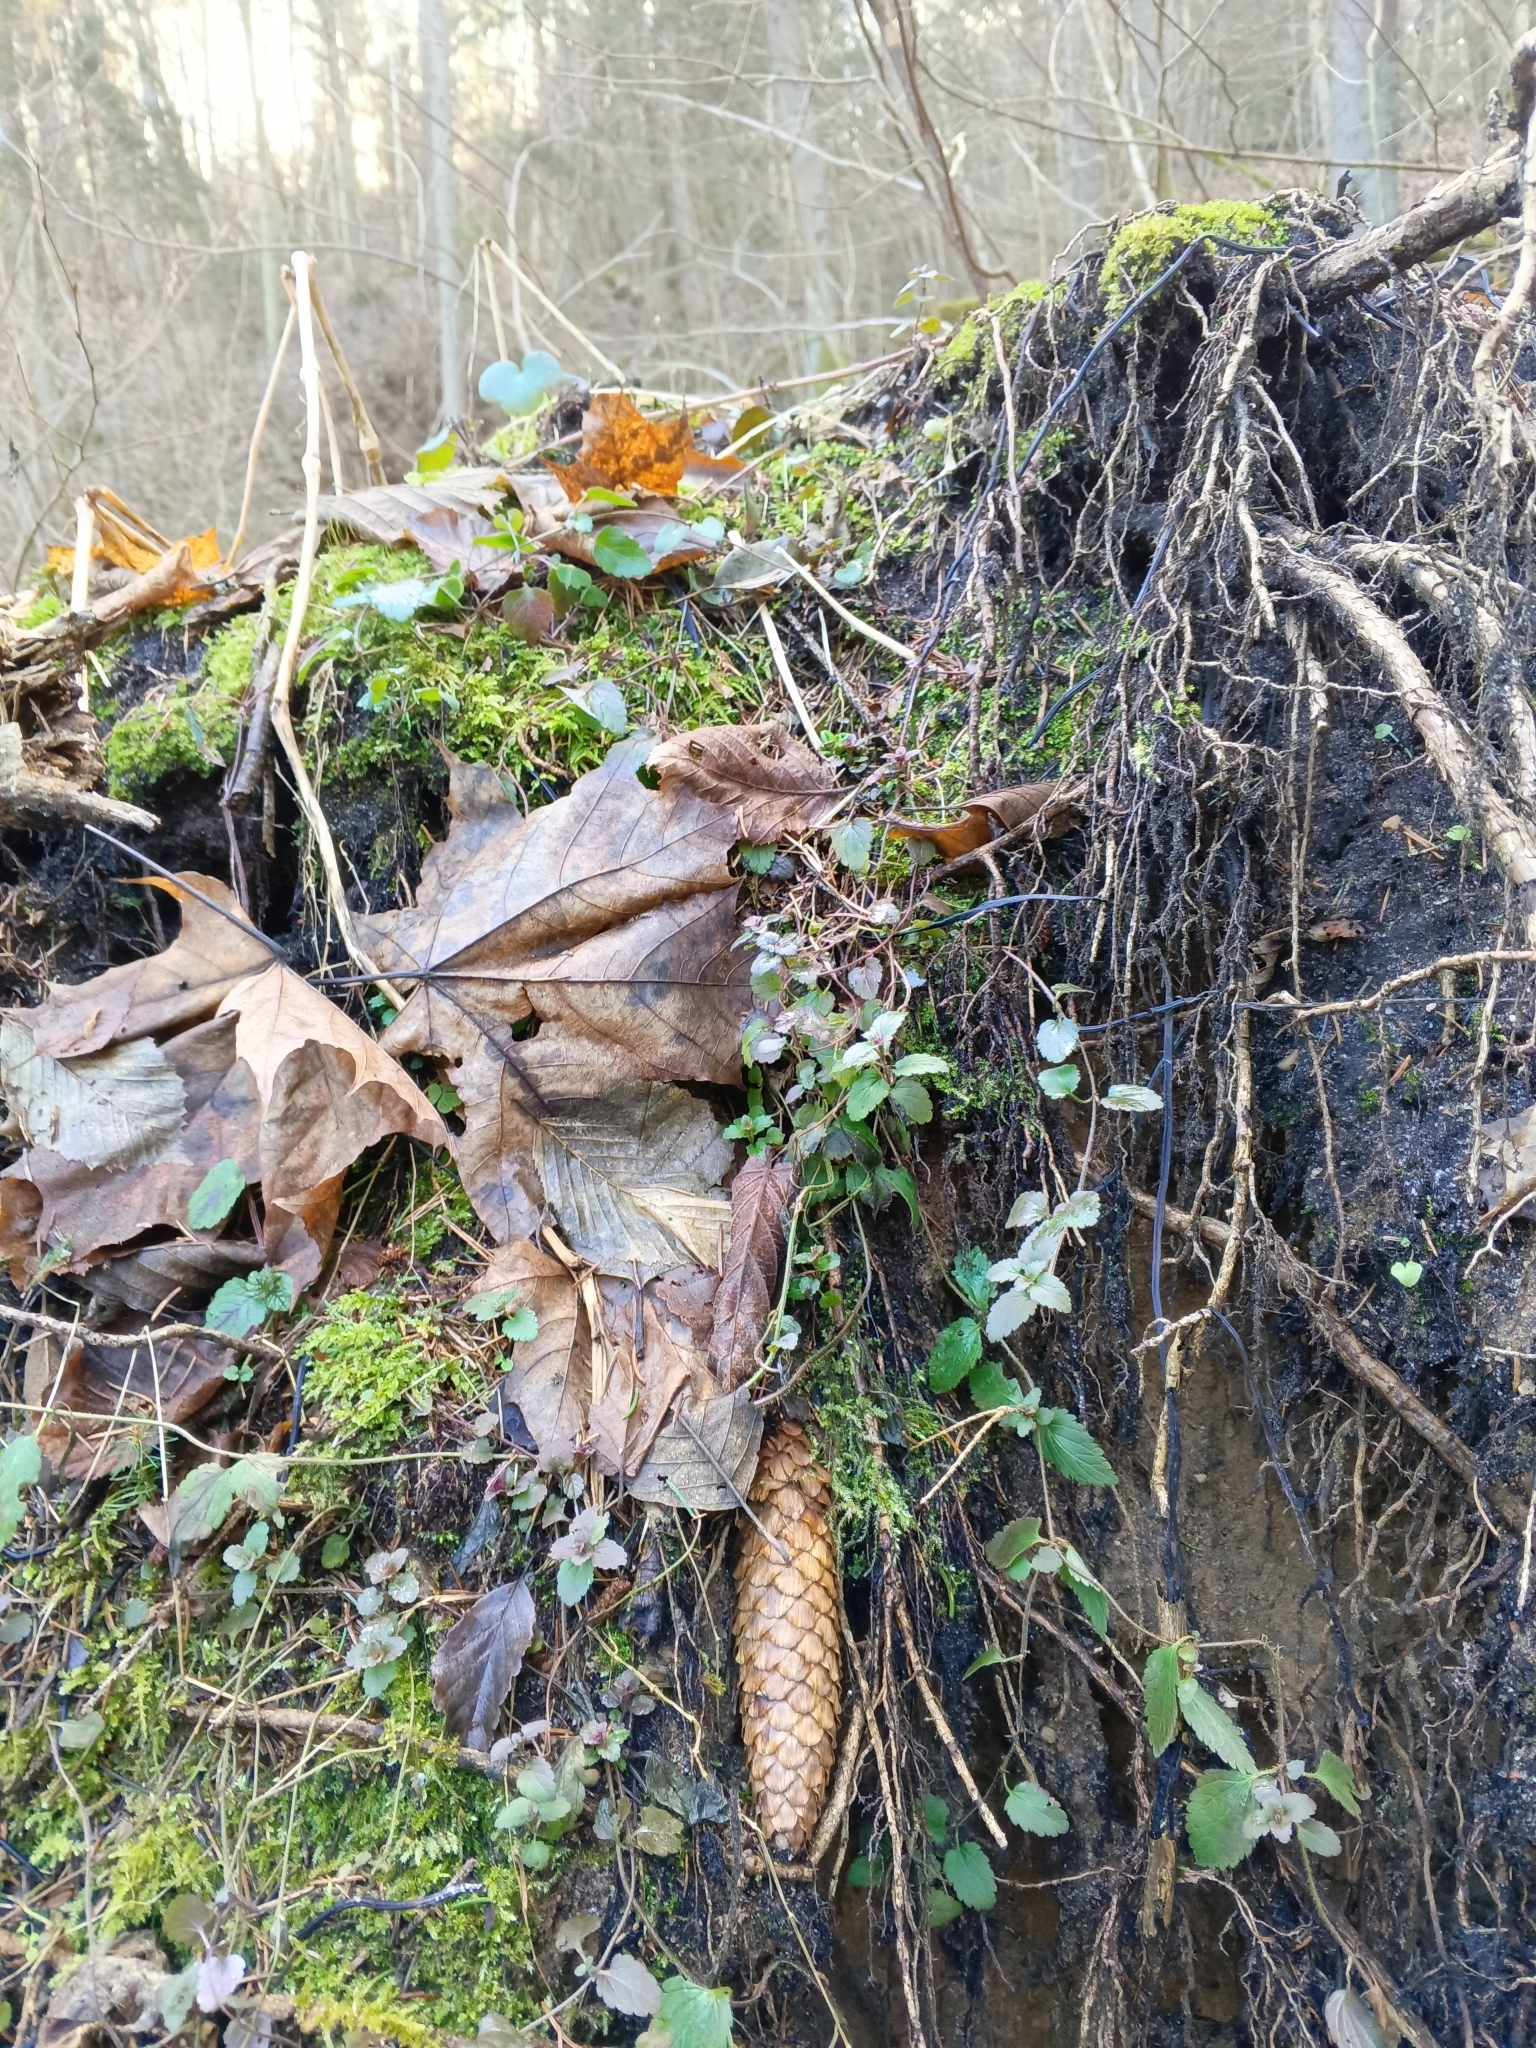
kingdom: Plantae
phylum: Tracheophyta
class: Magnoliopsida
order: Lamiales
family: Plantaginaceae
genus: Veronica
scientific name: Veronica chamaedrys
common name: Germander speedwell
